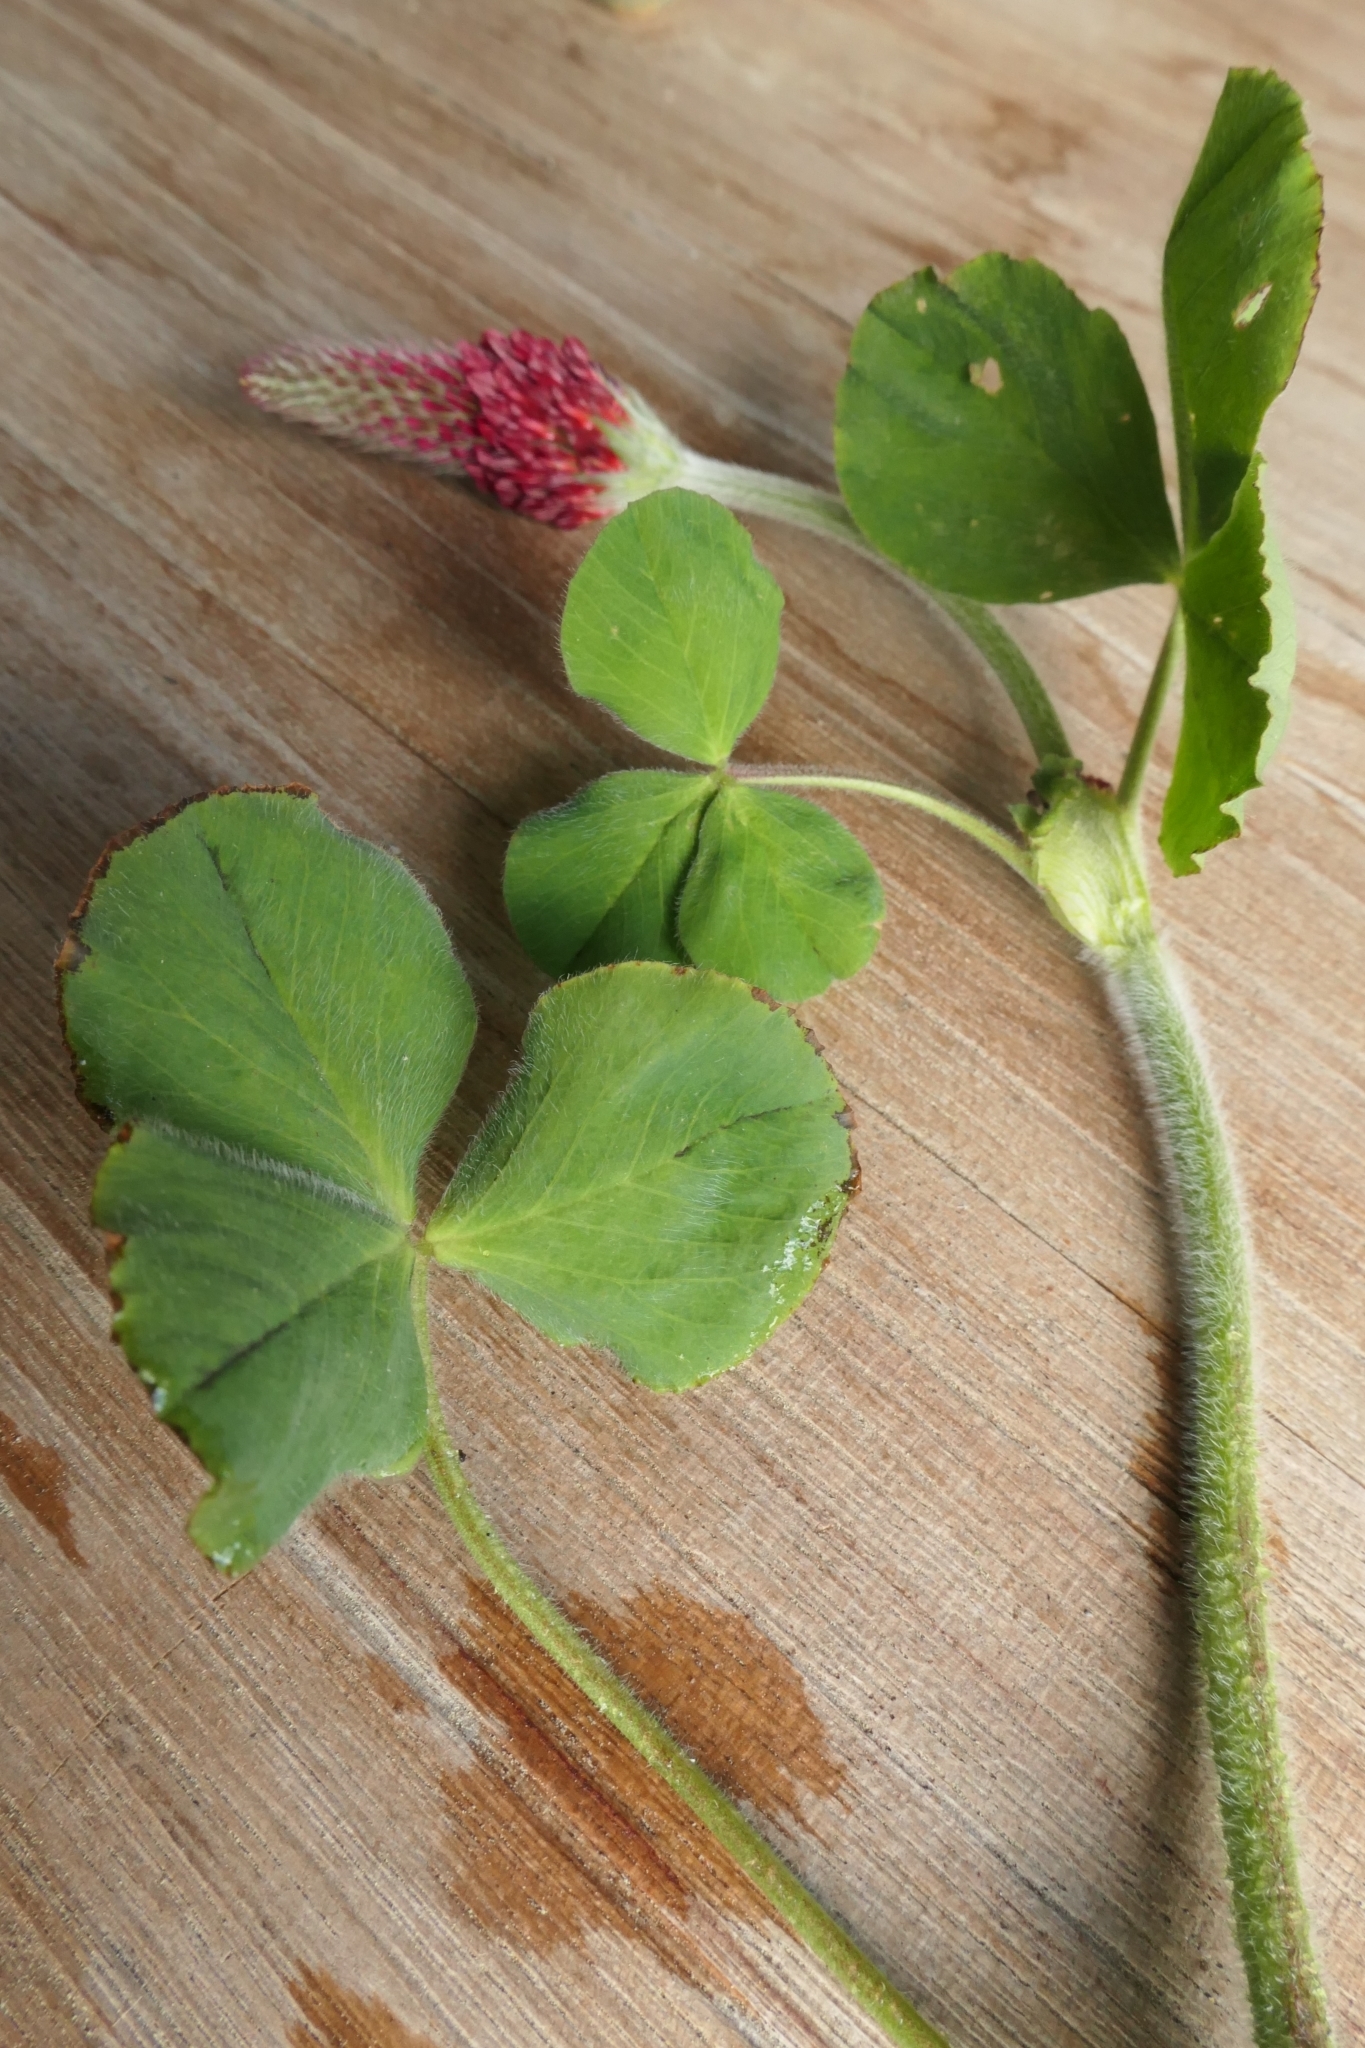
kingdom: Plantae
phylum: Tracheophyta
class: Magnoliopsida
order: Fabales
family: Fabaceae
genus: Trifolium
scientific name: Trifolium incarnatum
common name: Crimson clover
